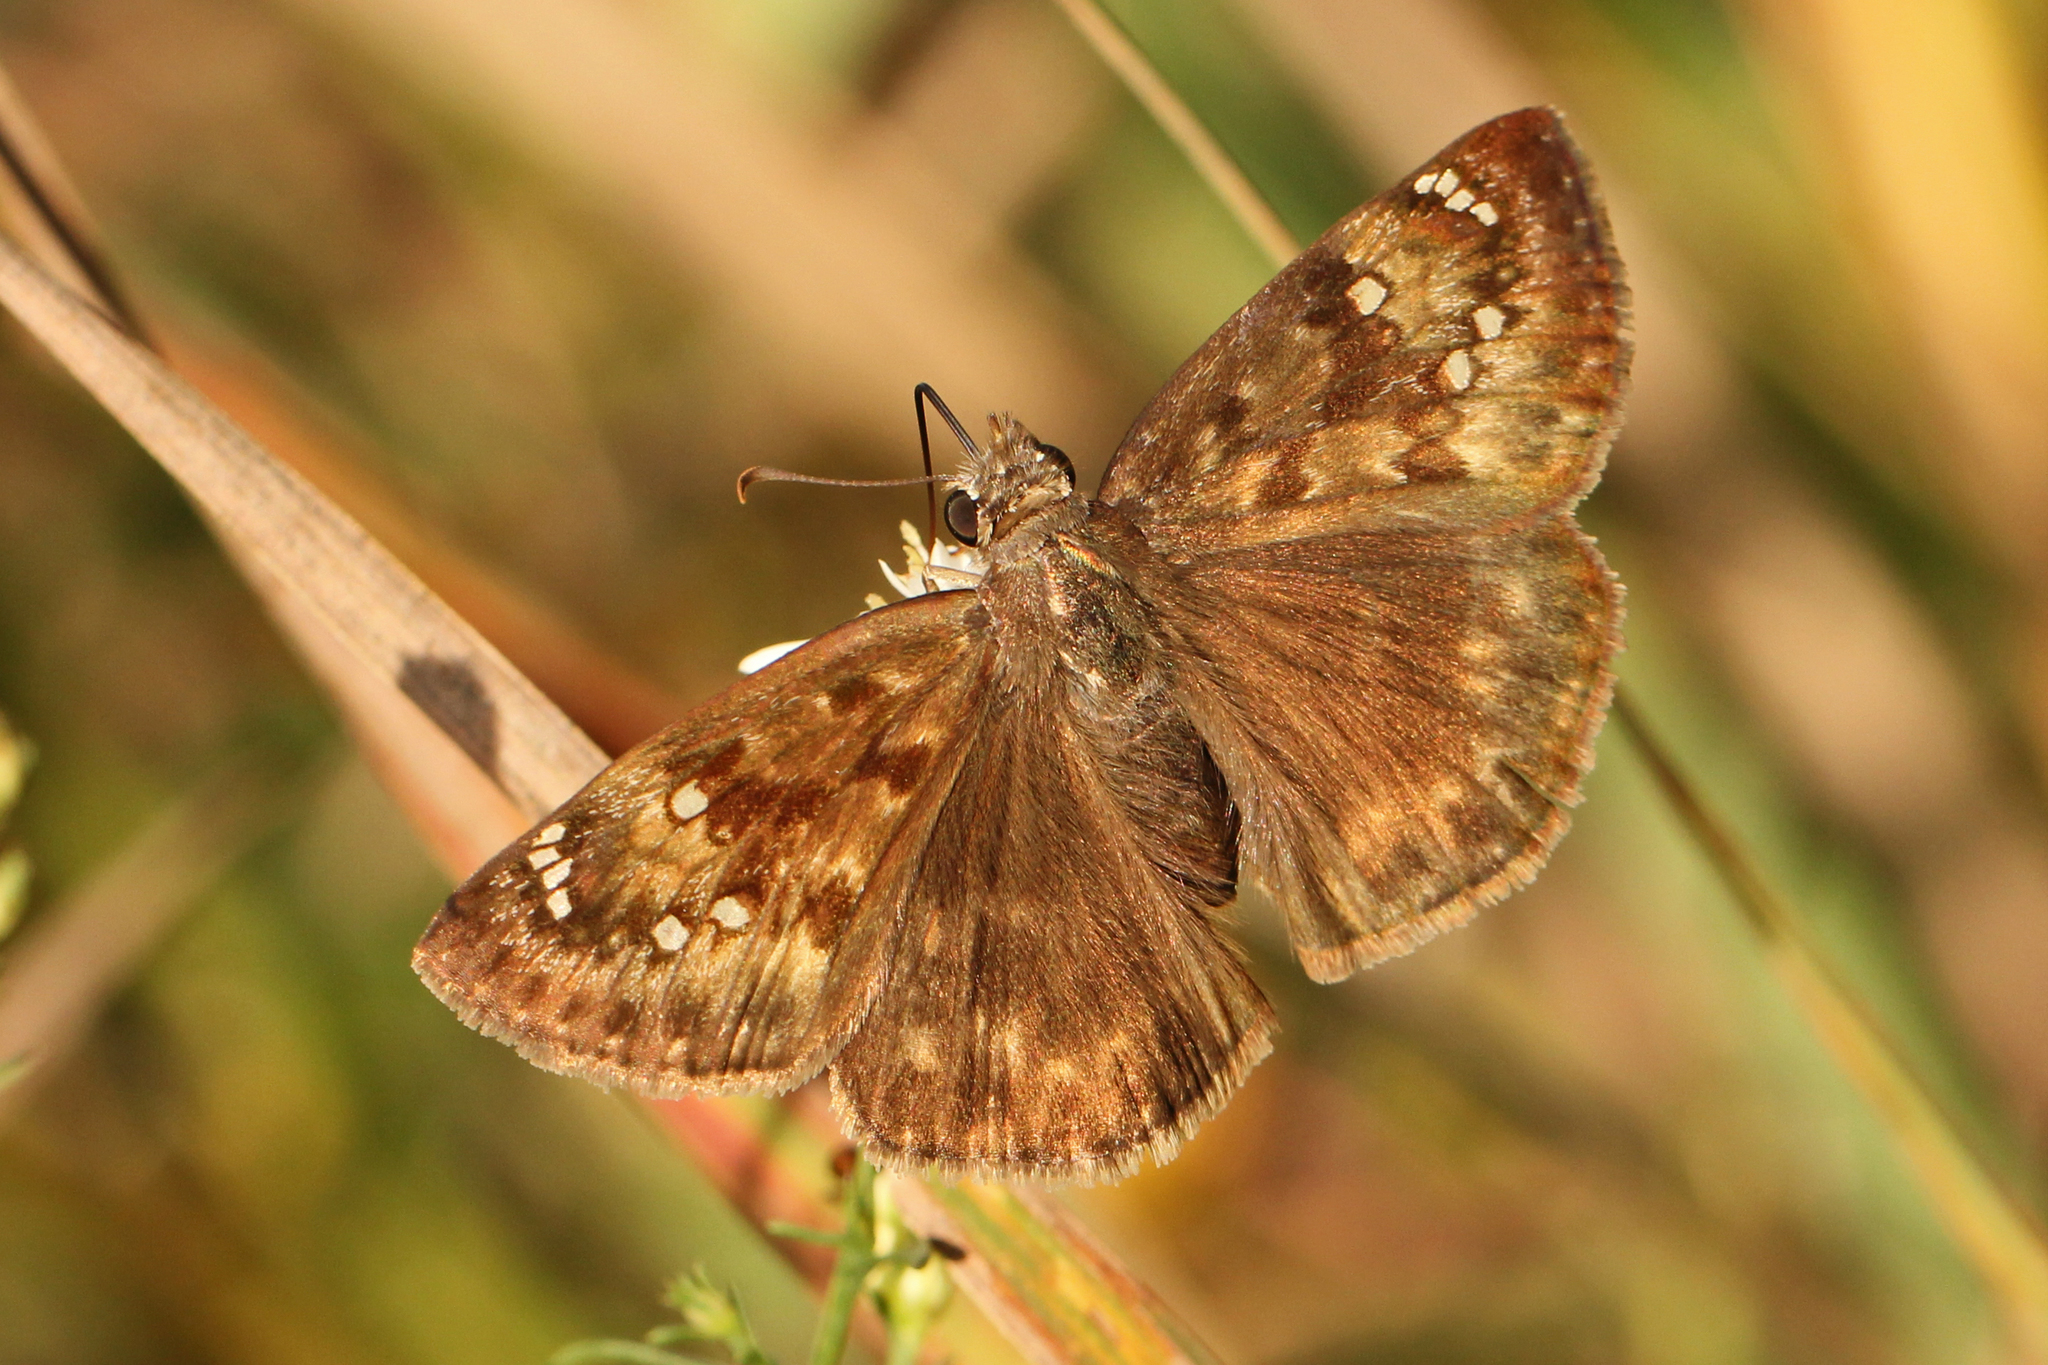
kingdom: Animalia
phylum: Arthropoda
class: Insecta
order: Lepidoptera
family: Hesperiidae
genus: Erynnis
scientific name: Erynnis horatius
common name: Horace's duskywing
